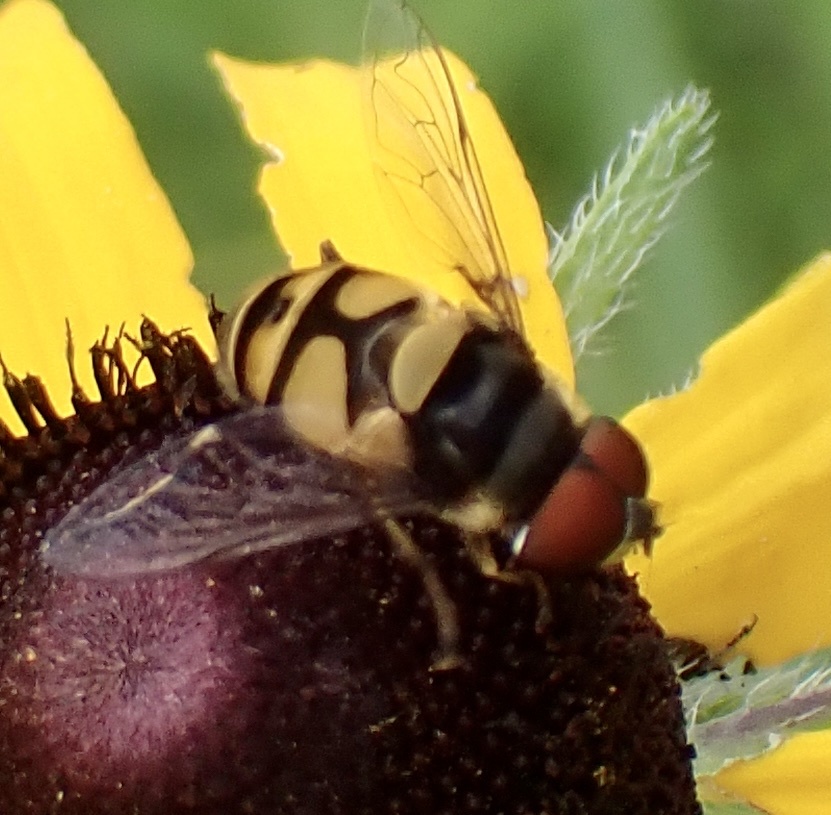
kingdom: Animalia
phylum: Arthropoda
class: Insecta
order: Diptera
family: Syrphidae
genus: Eristalis
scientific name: Eristalis transversa
